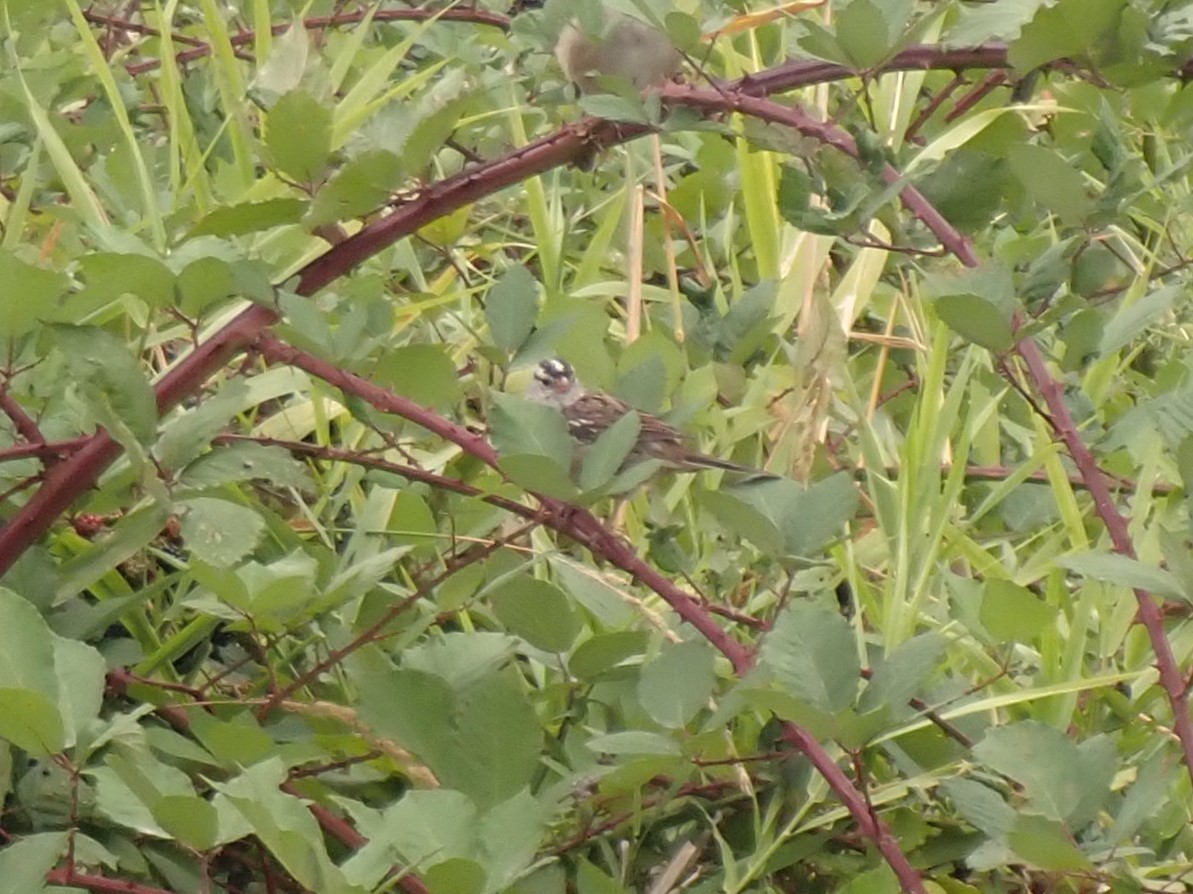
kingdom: Animalia
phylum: Chordata
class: Aves
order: Passeriformes
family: Passerellidae
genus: Zonotrichia
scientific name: Zonotrichia leucophrys
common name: White-crowned sparrow
